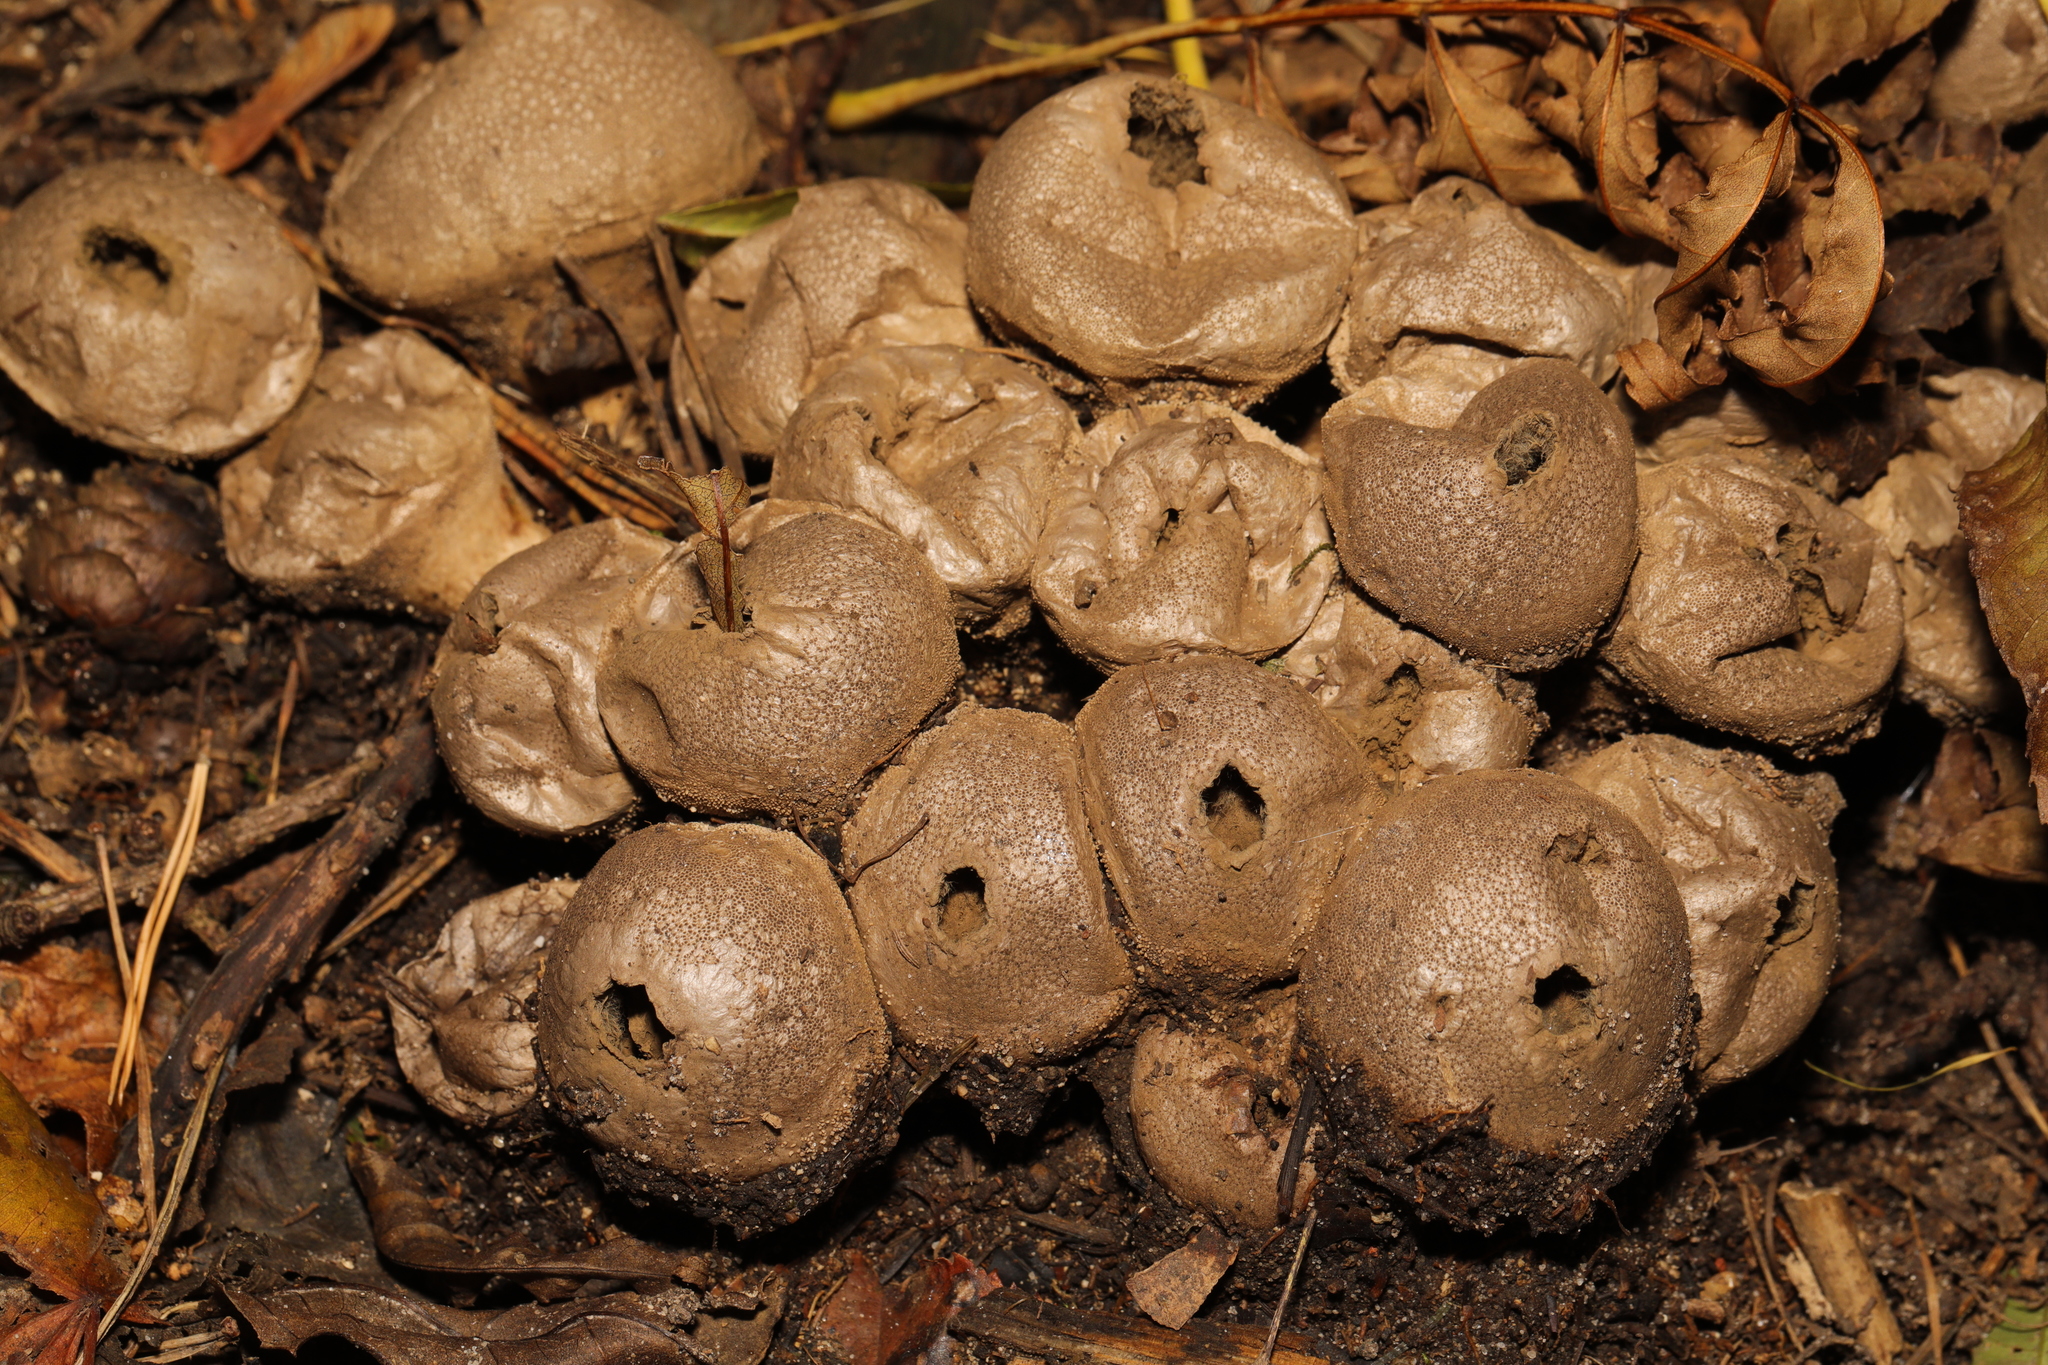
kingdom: Fungi
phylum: Basidiomycota
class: Agaricomycetes
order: Agaricales
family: Lycoperdaceae
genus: Apioperdon
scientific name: Apioperdon pyriforme
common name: Pear-shaped puffball
